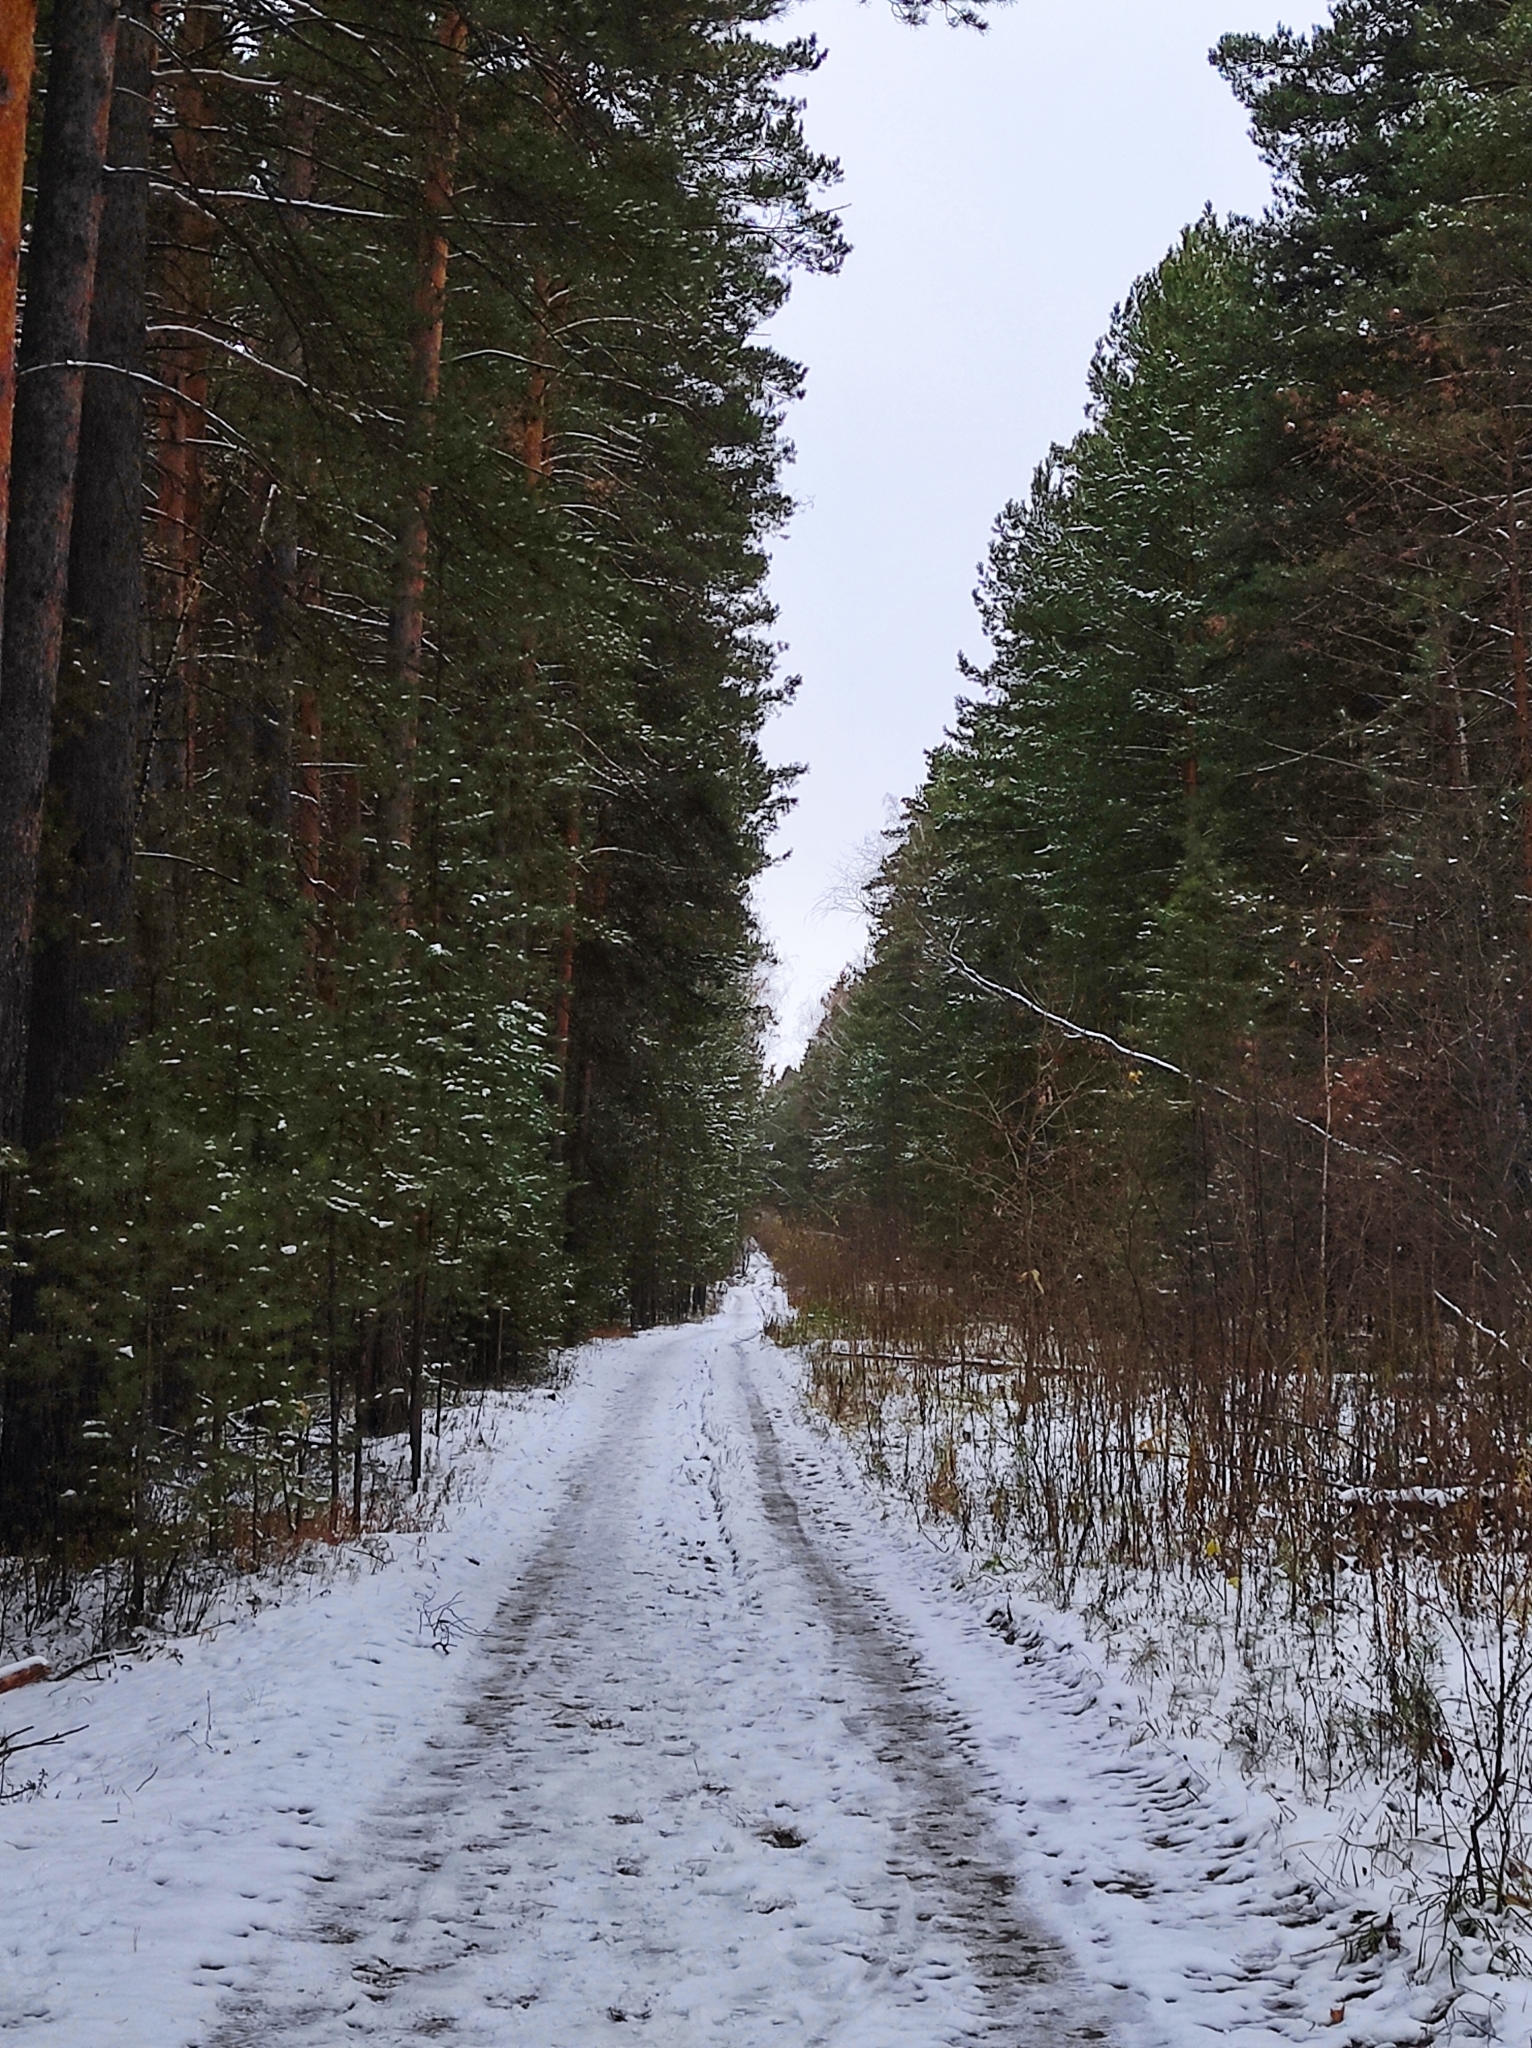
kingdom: Plantae
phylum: Tracheophyta
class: Pinopsida
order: Pinales
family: Pinaceae
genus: Pinus
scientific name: Pinus sylvestris
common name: Scots pine
